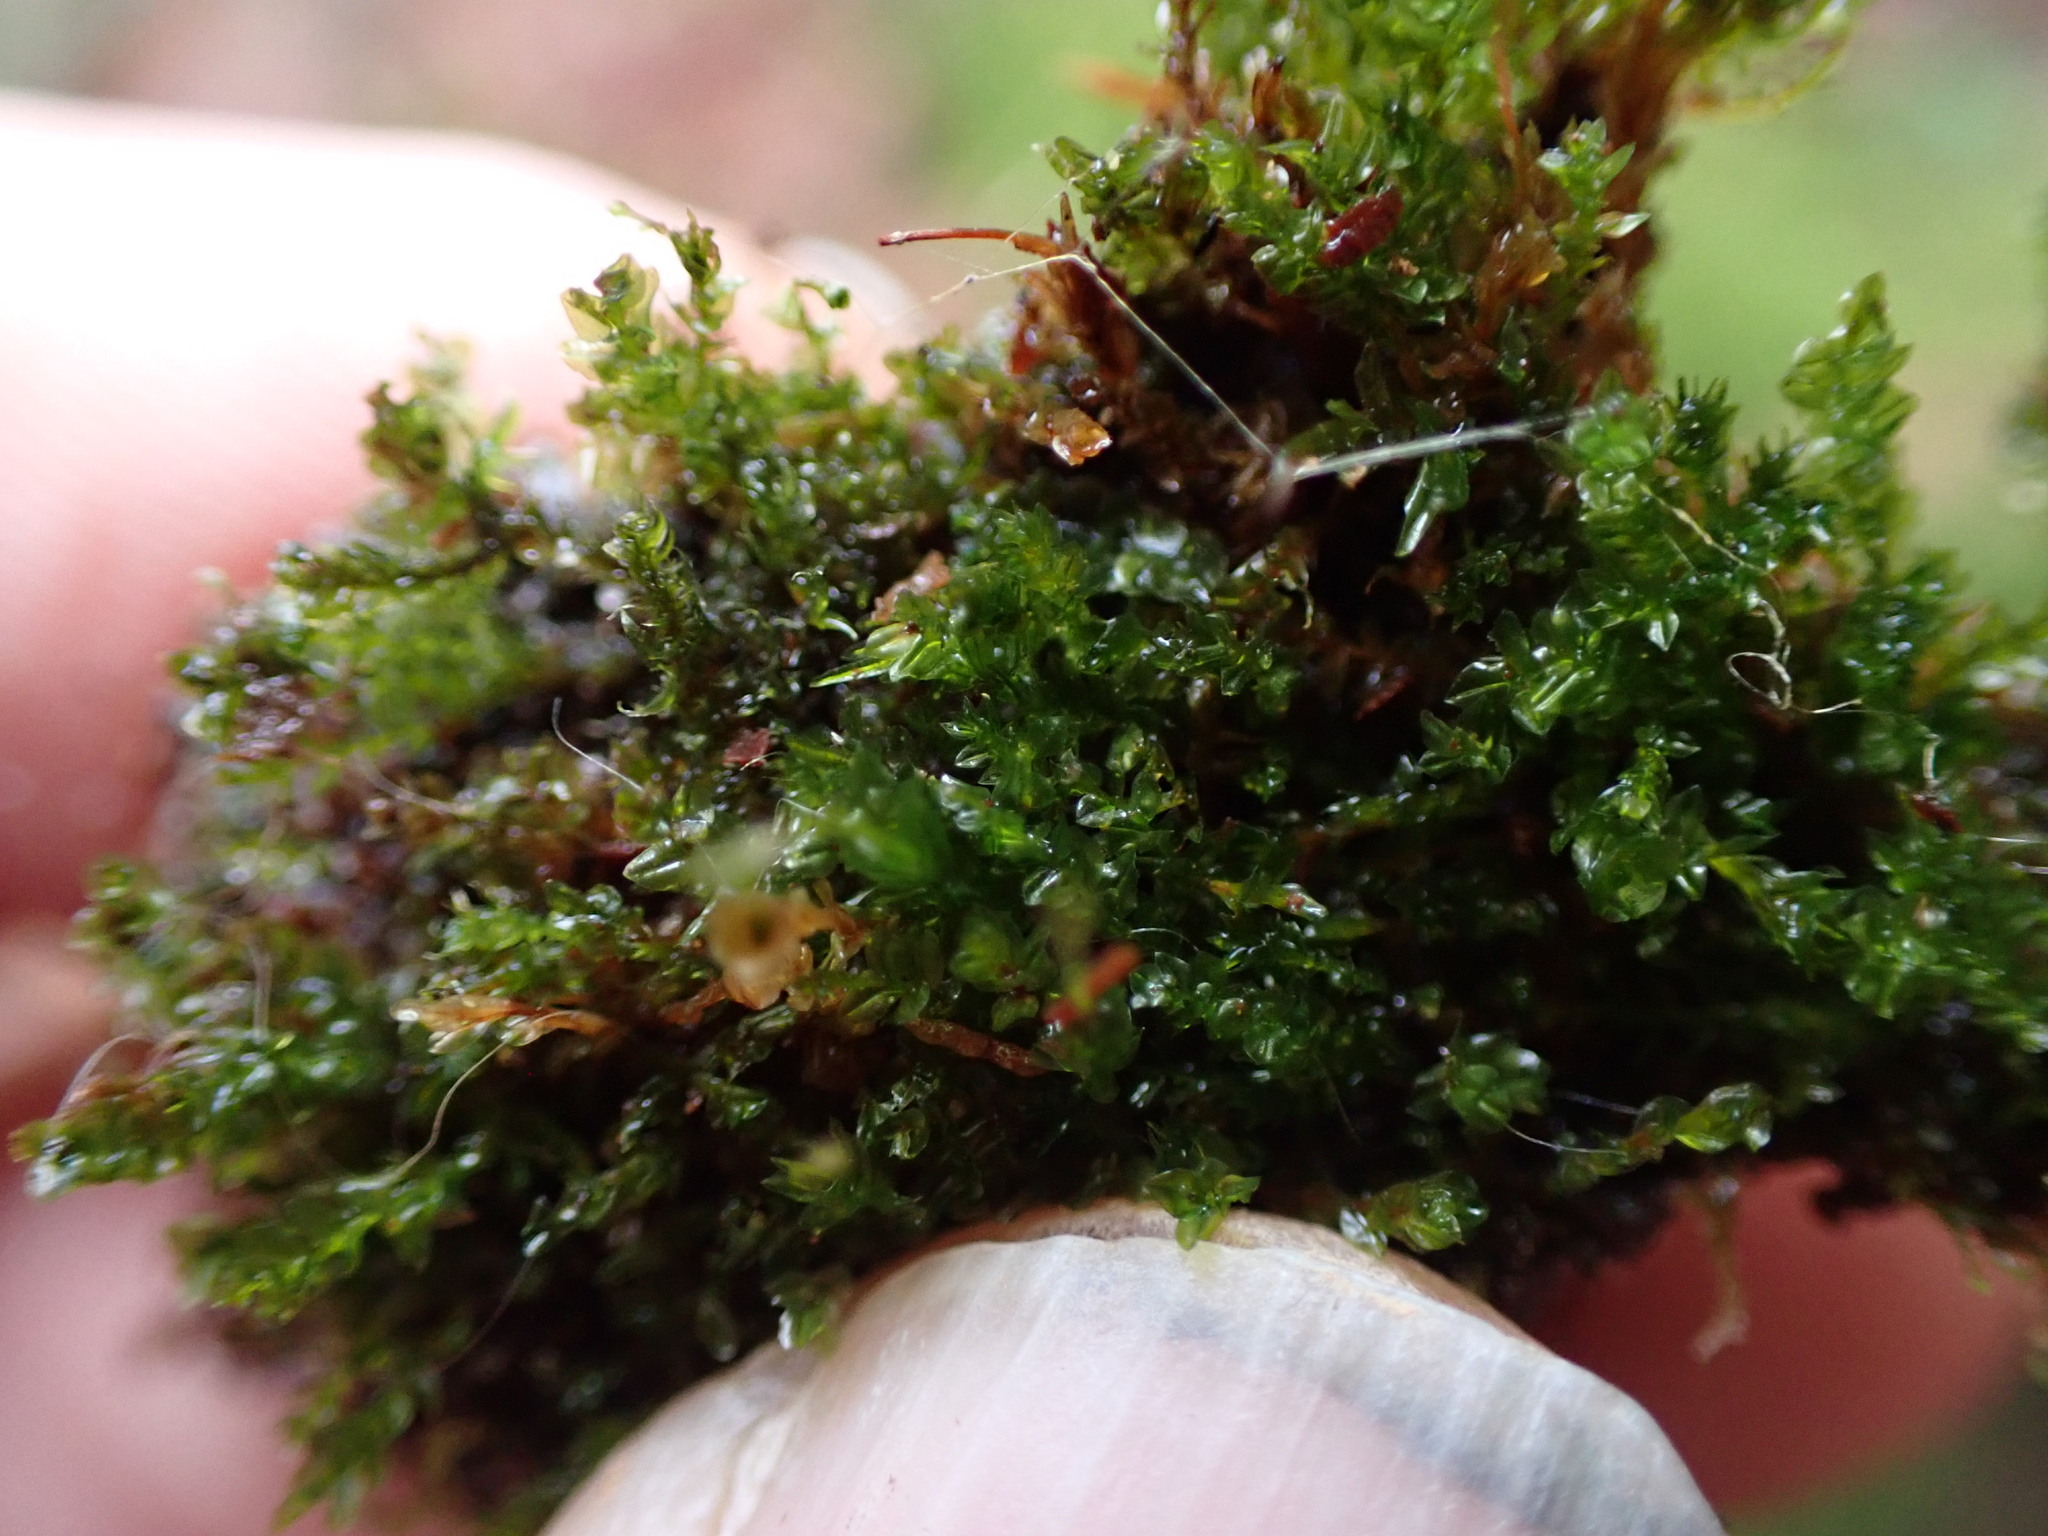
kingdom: Plantae
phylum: Bryophyta
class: Polytrichopsida
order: Tetraphidales
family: Tetraphidaceae
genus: Tetraphis
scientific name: Tetraphis pellucida
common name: Common four-toothed moss
